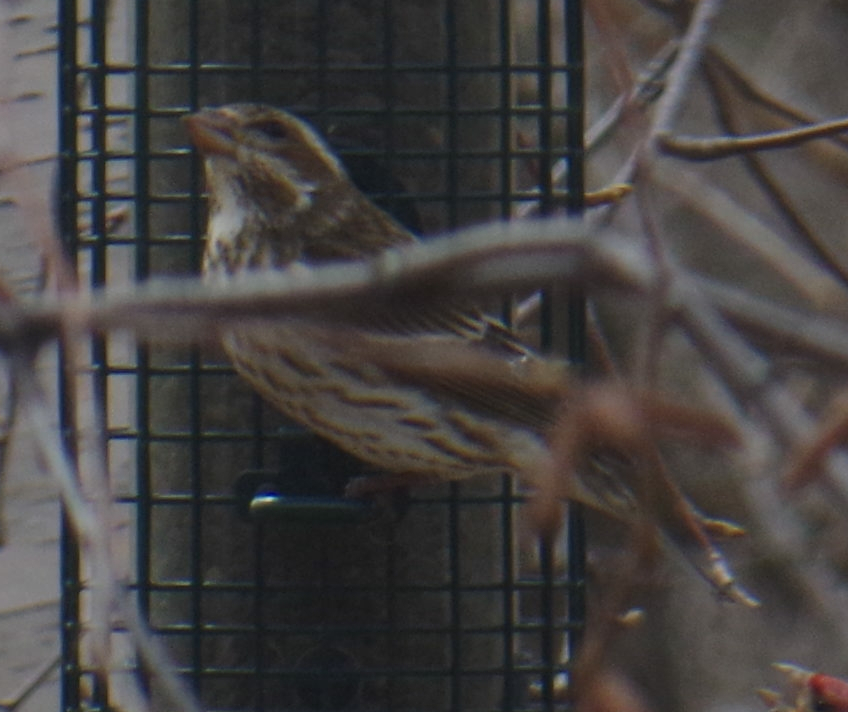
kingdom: Animalia
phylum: Chordata
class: Aves
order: Passeriformes
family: Fringillidae
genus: Haemorhous
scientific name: Haemorhous purpureus
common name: Purple finch
